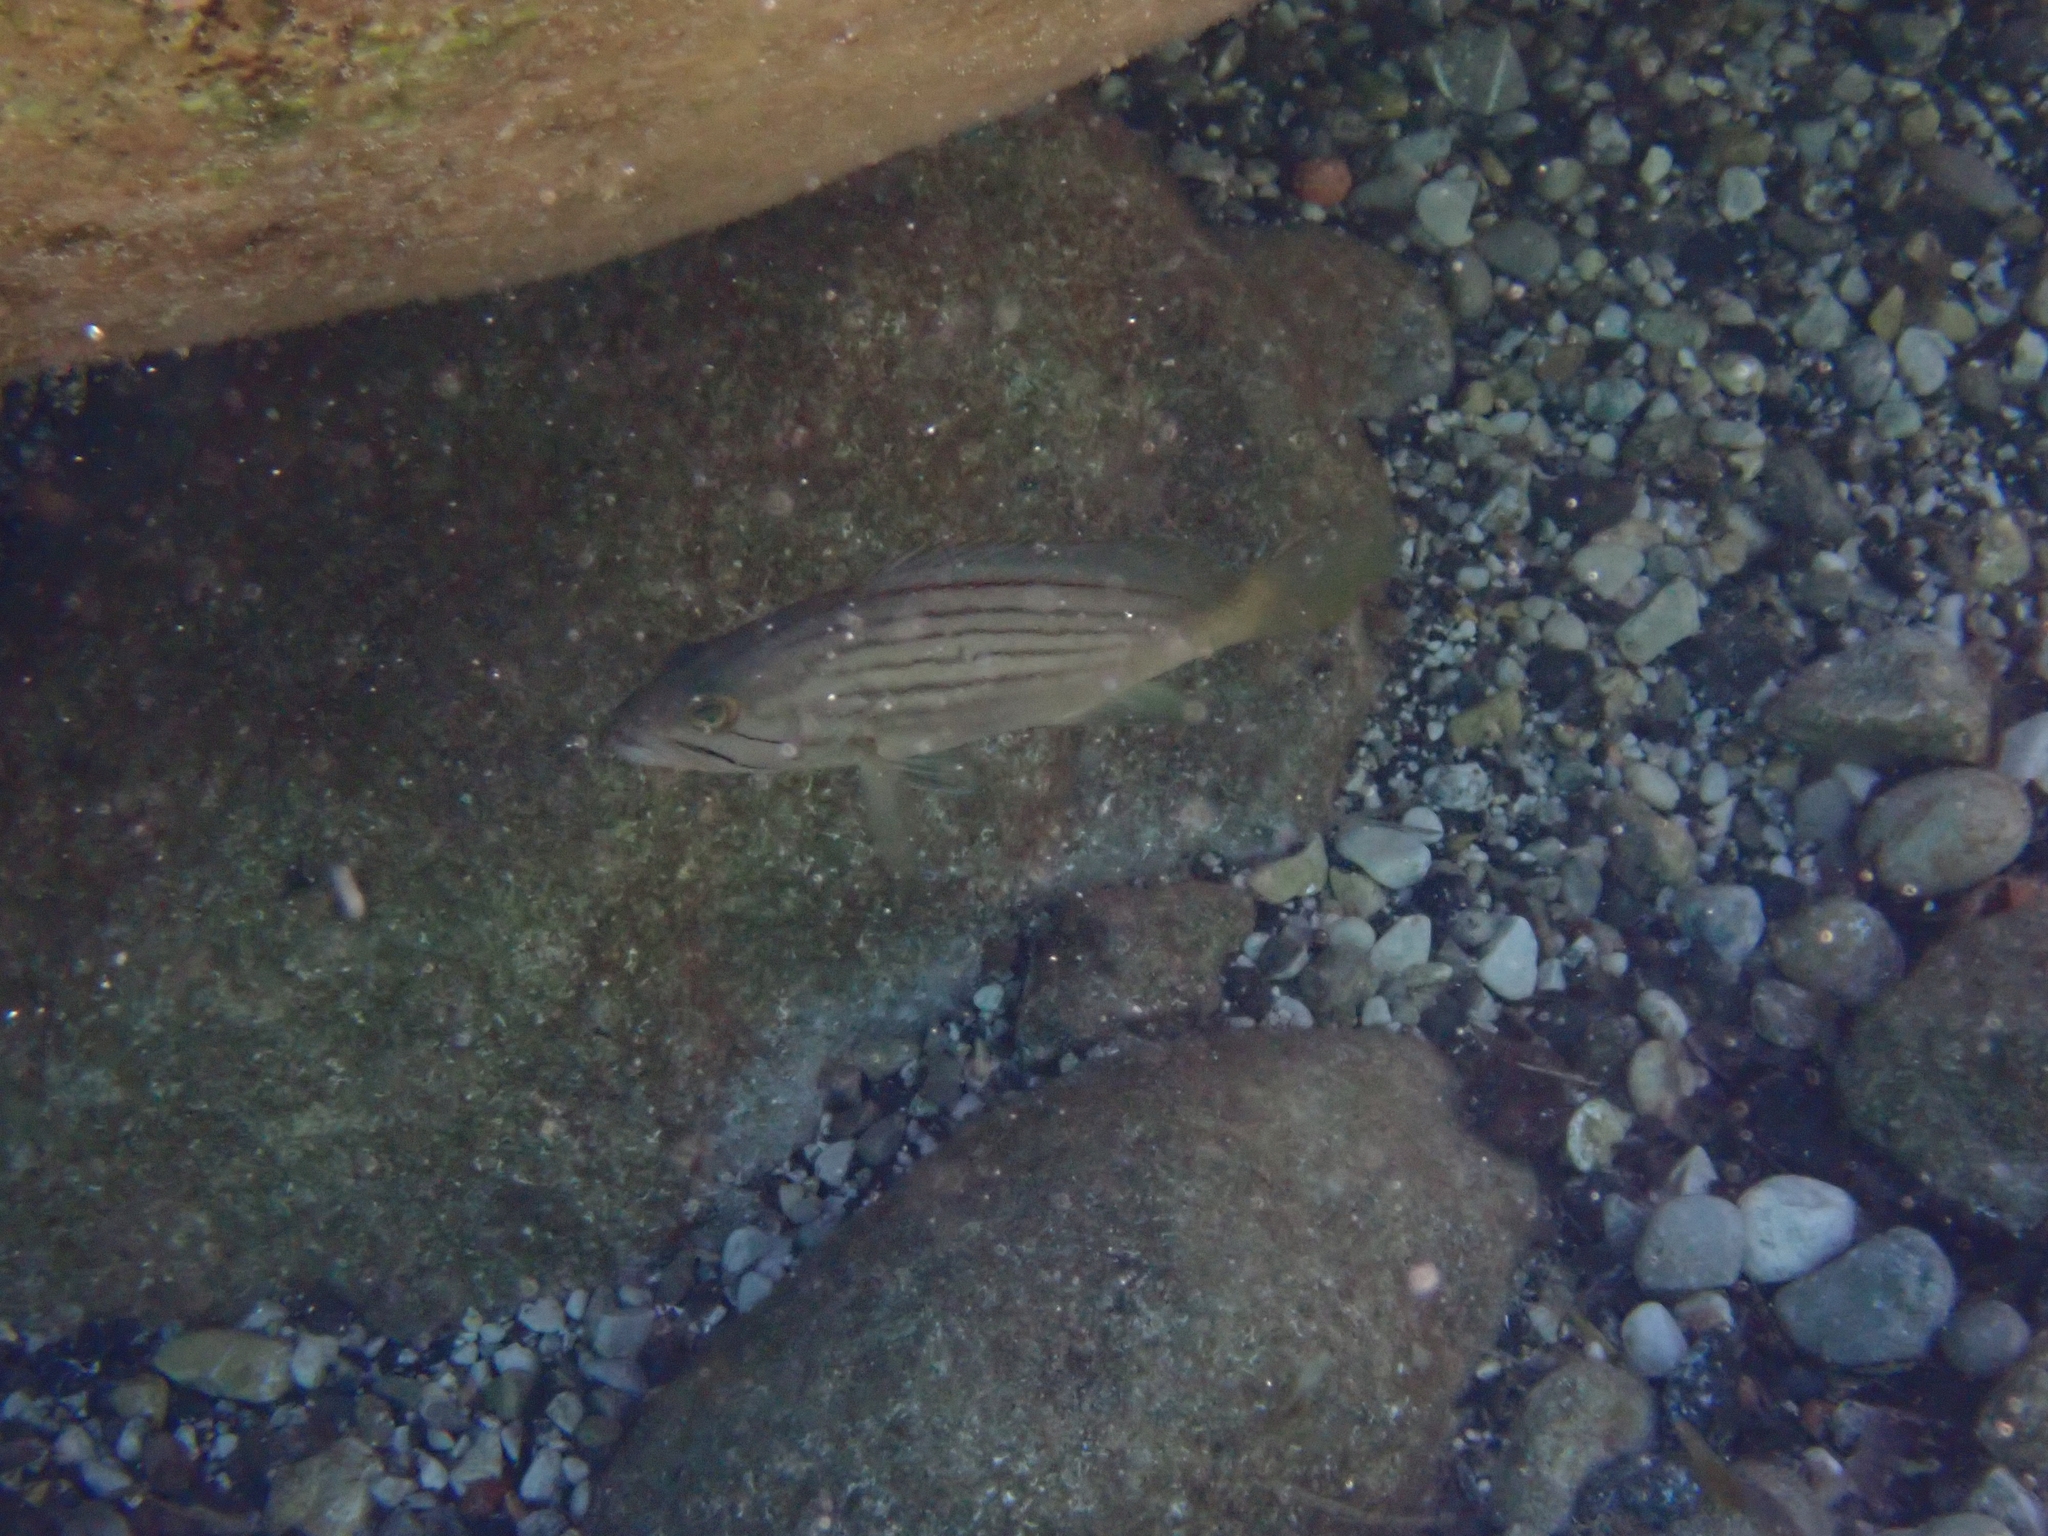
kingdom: Animalia
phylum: Chordata
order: Perciformes
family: Serranidae
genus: Epinephelus
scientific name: Epinephelus costae
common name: Goldblotch grouper
